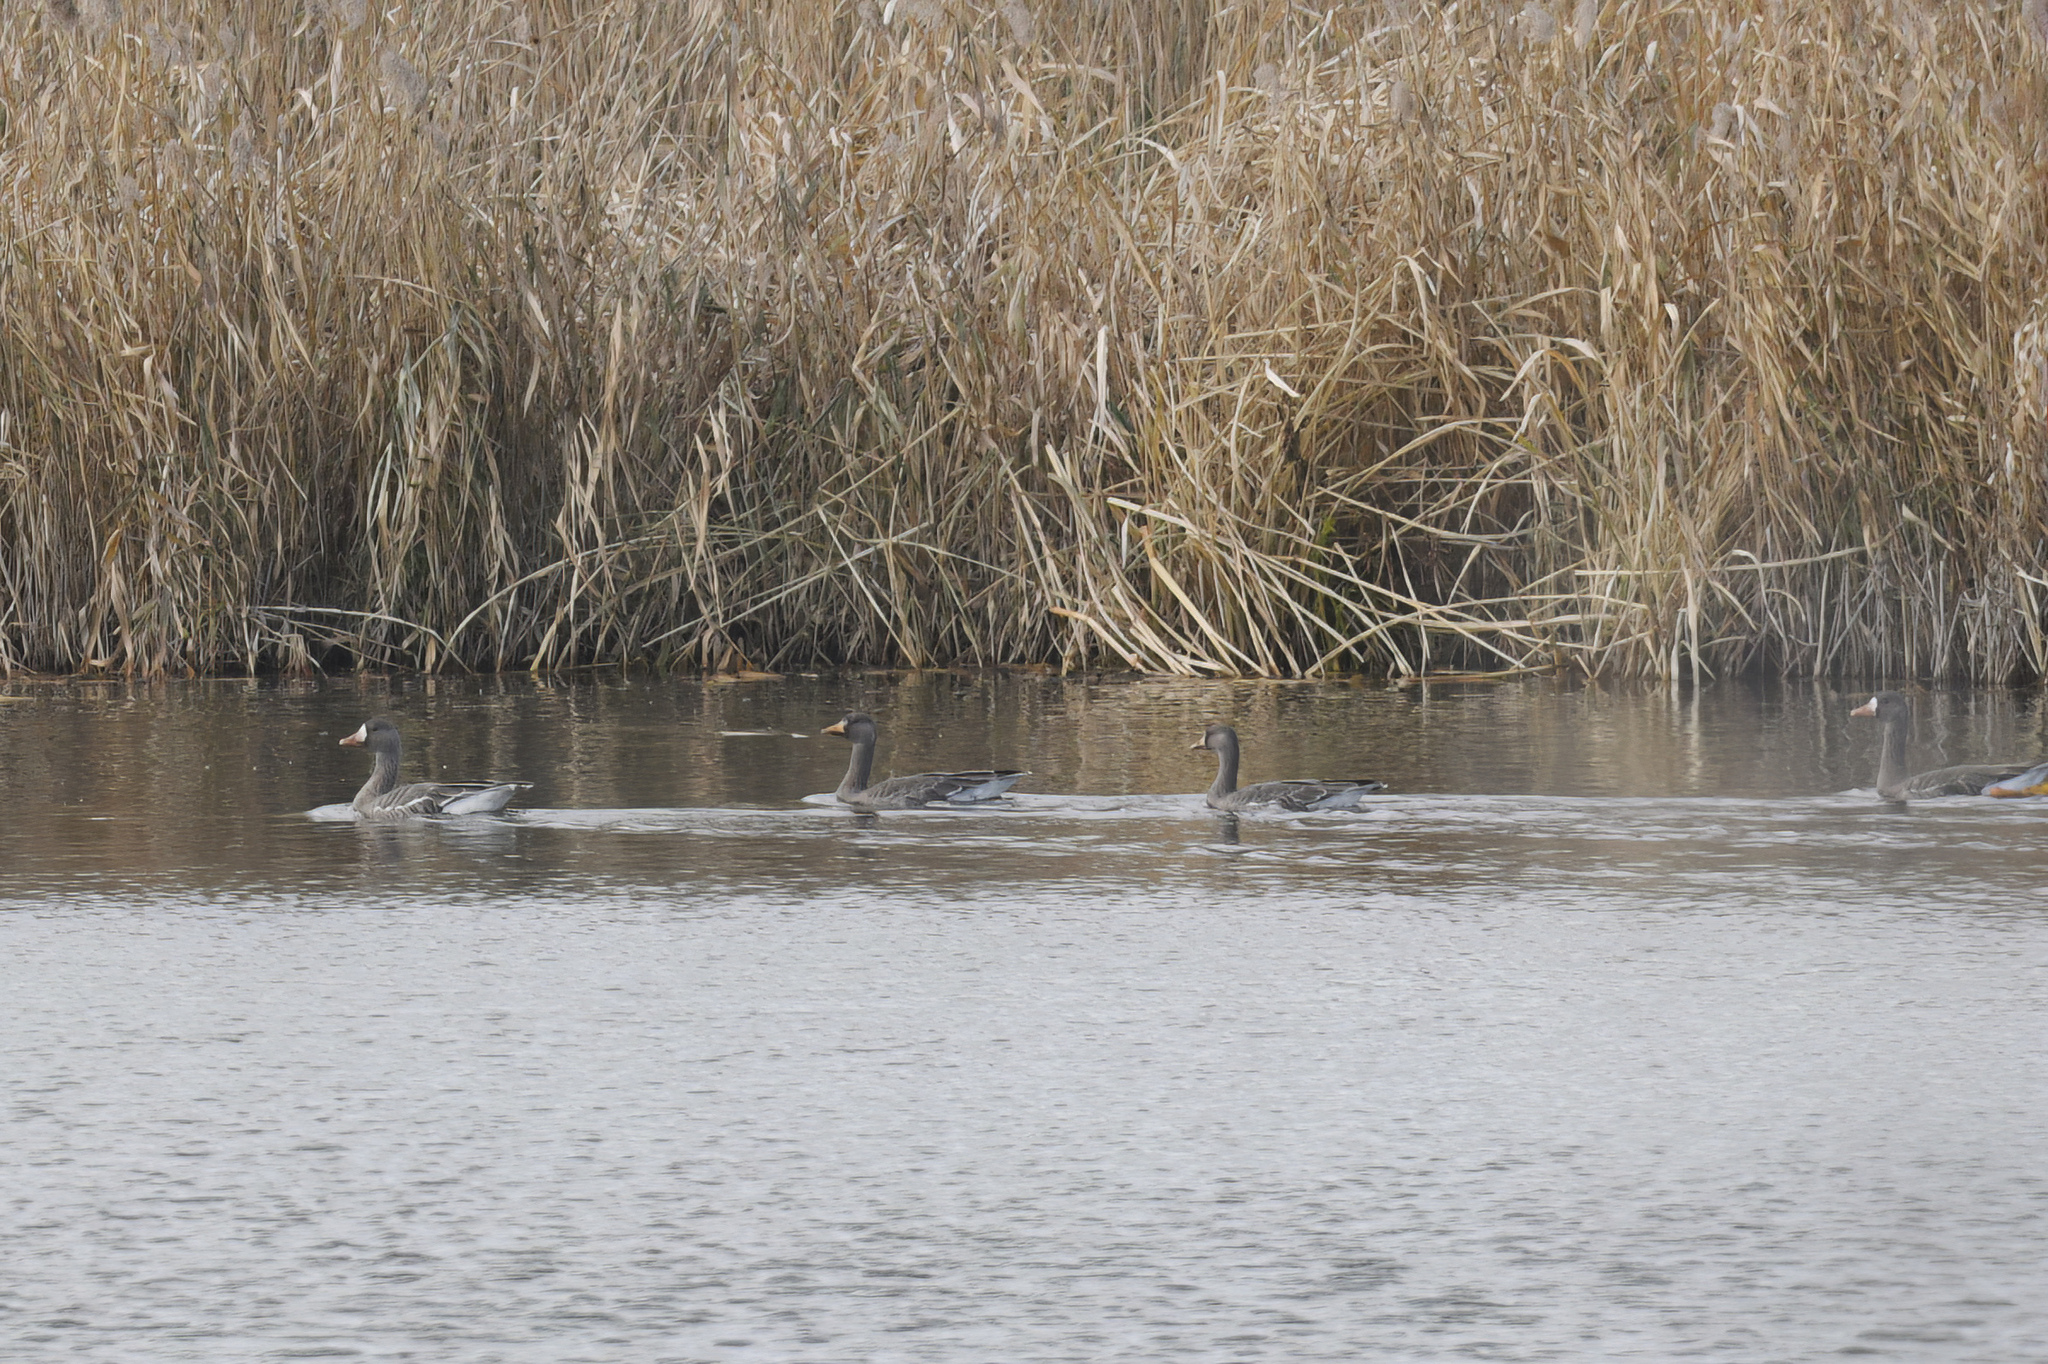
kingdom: Animalia
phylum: Chordata
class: Aves
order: Anseriformes
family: Anatidae
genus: Anser
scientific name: Anser albifrons
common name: Greater white-fronted goose
